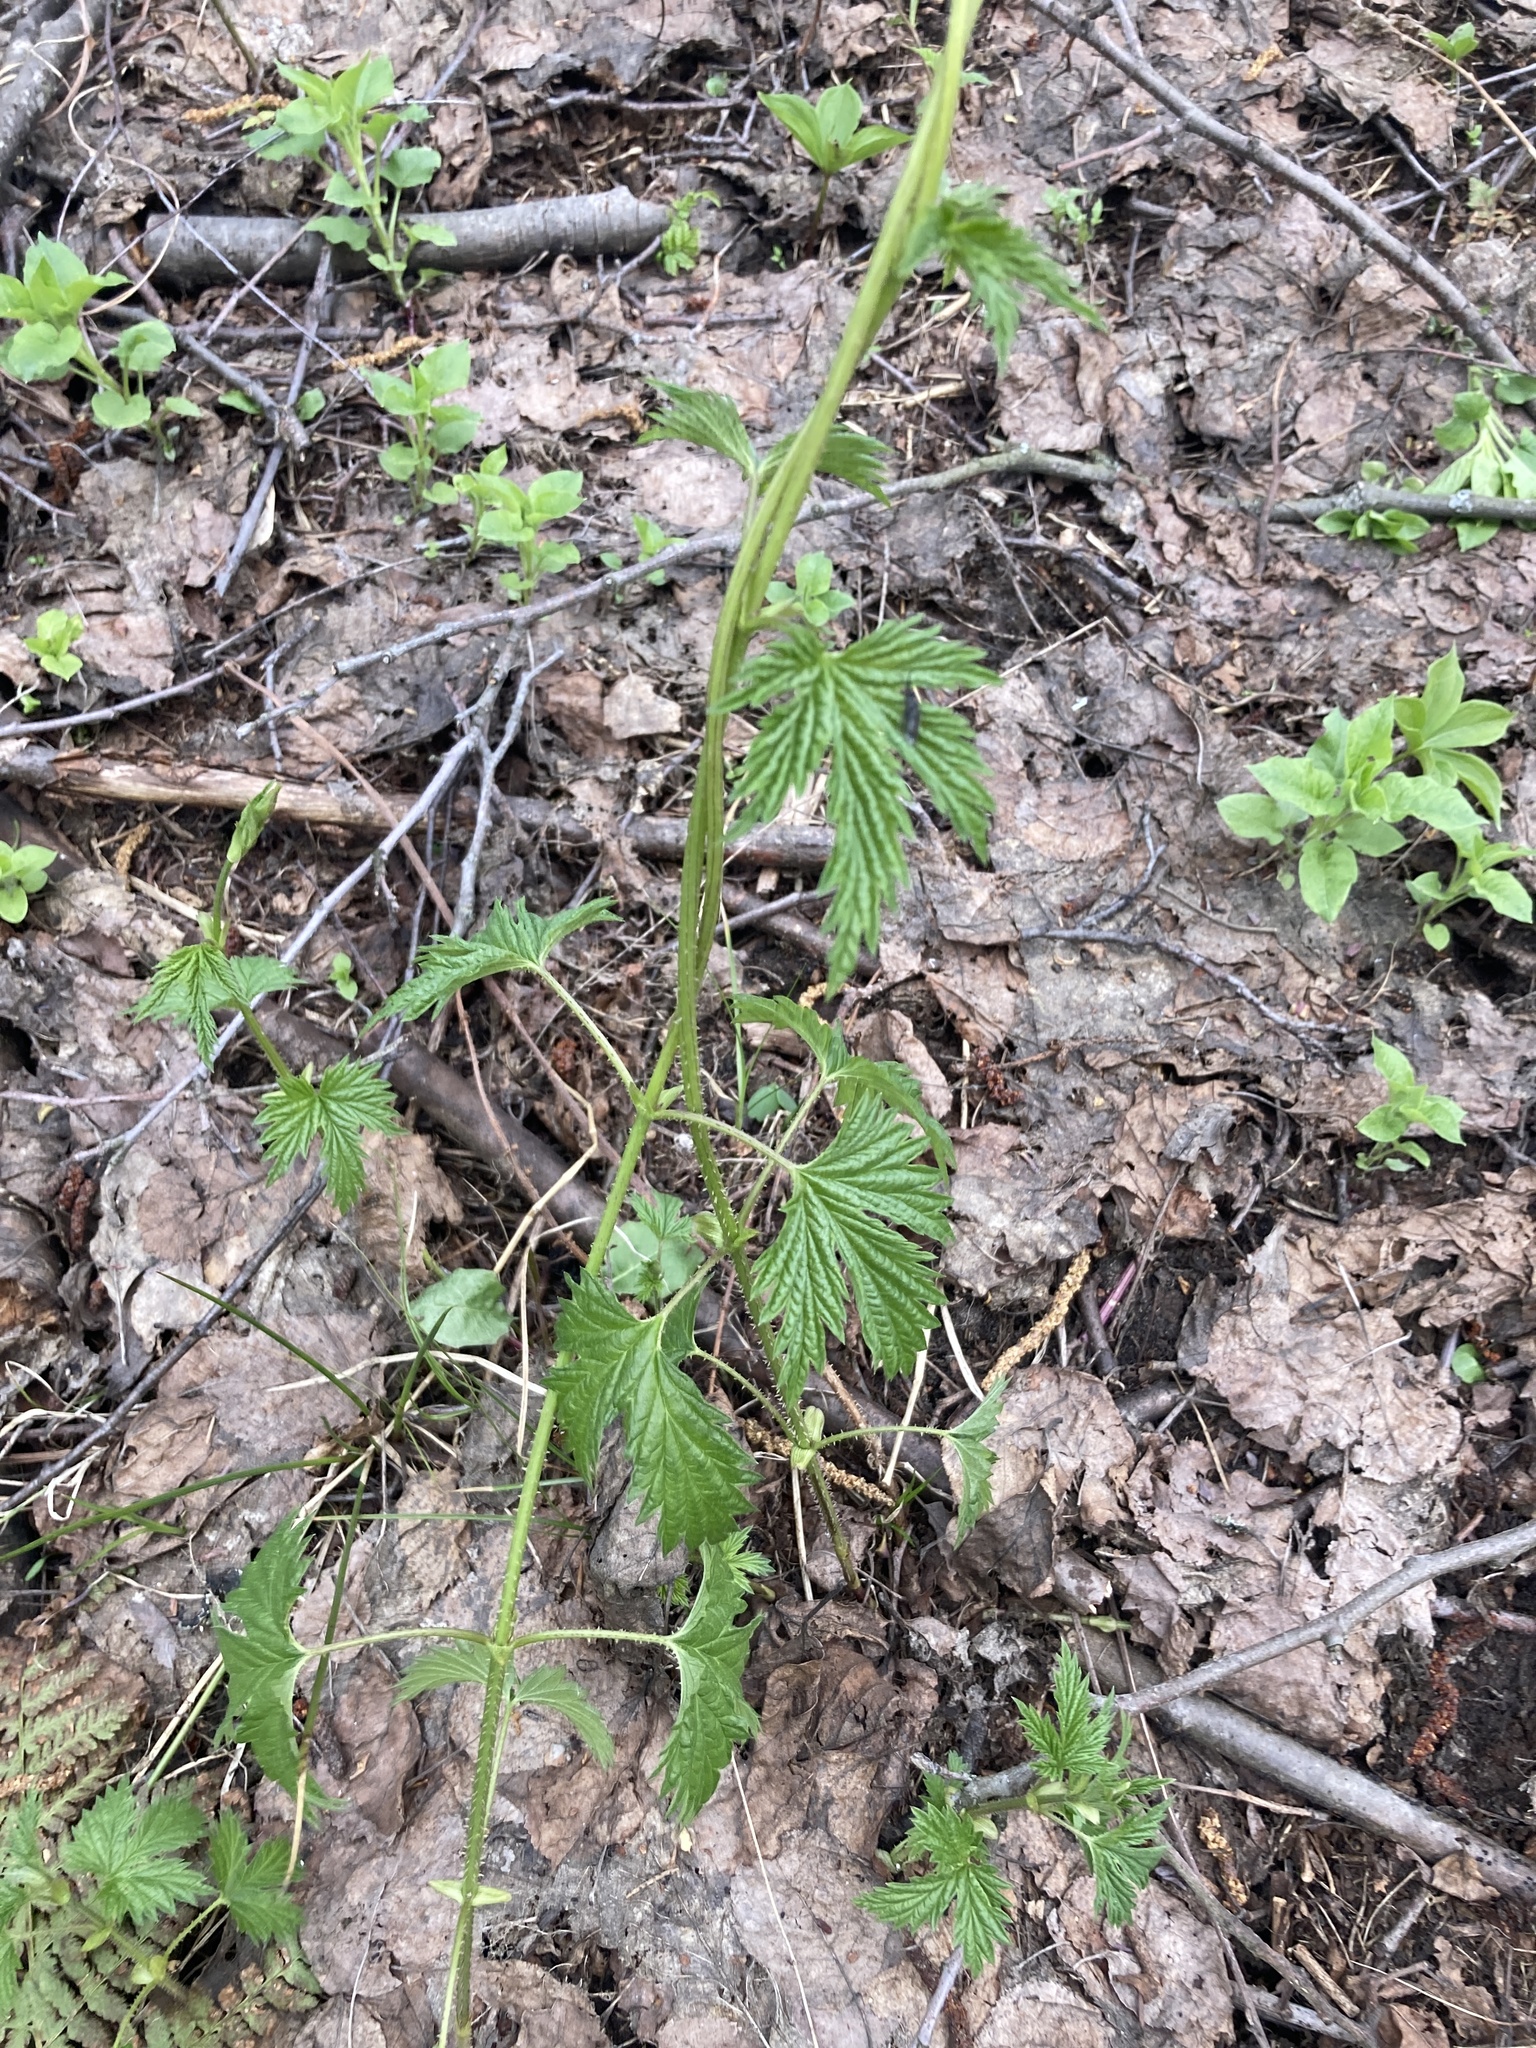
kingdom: Plantae
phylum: Tracheophyta
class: Magnoliopsida
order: Rosales
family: Cannabaceae
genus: Humulus
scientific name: Humulus lupulus
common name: Hop
